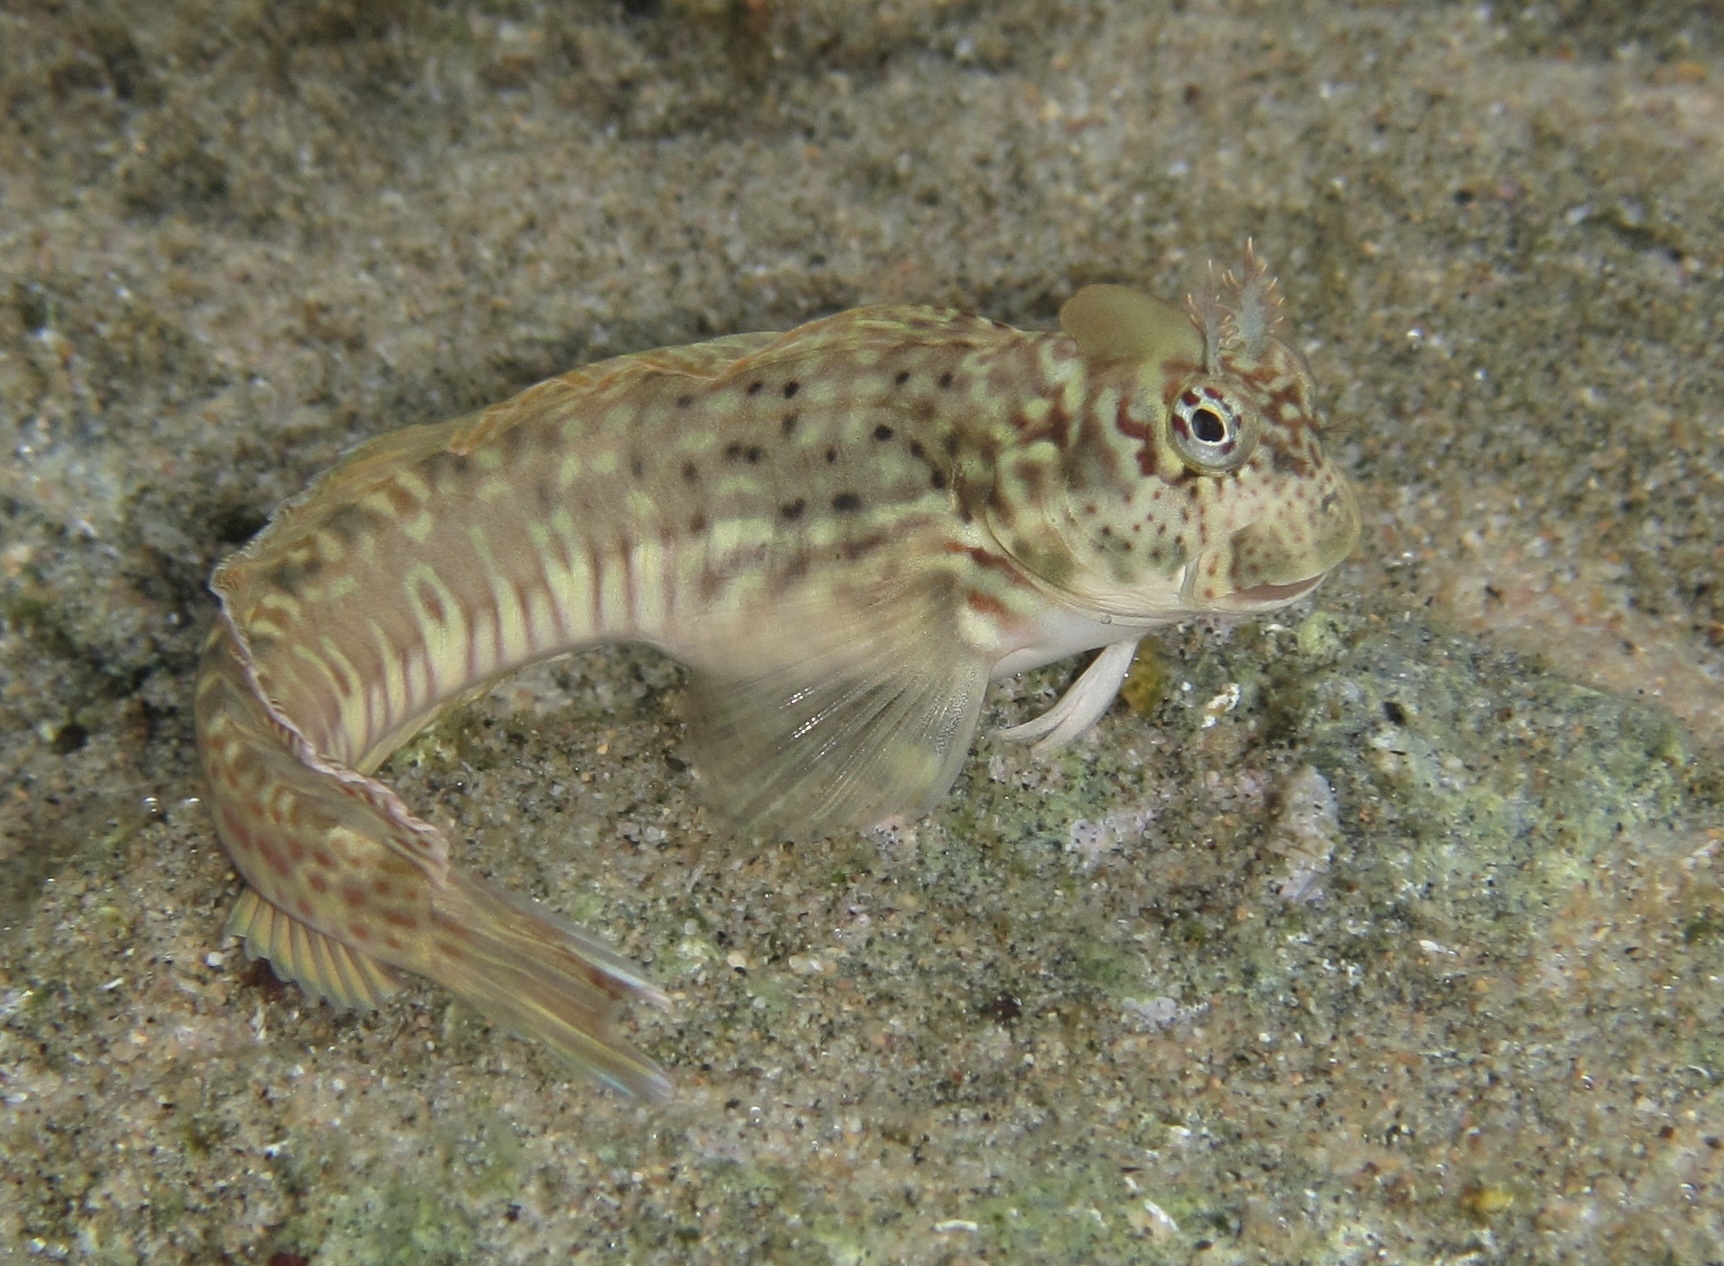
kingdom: Animalia
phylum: Chordata
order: Perciformes
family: Blenniidae
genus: Istiblennius
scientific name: Istiblennius dussumieri
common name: Dussumier's rockskipper
